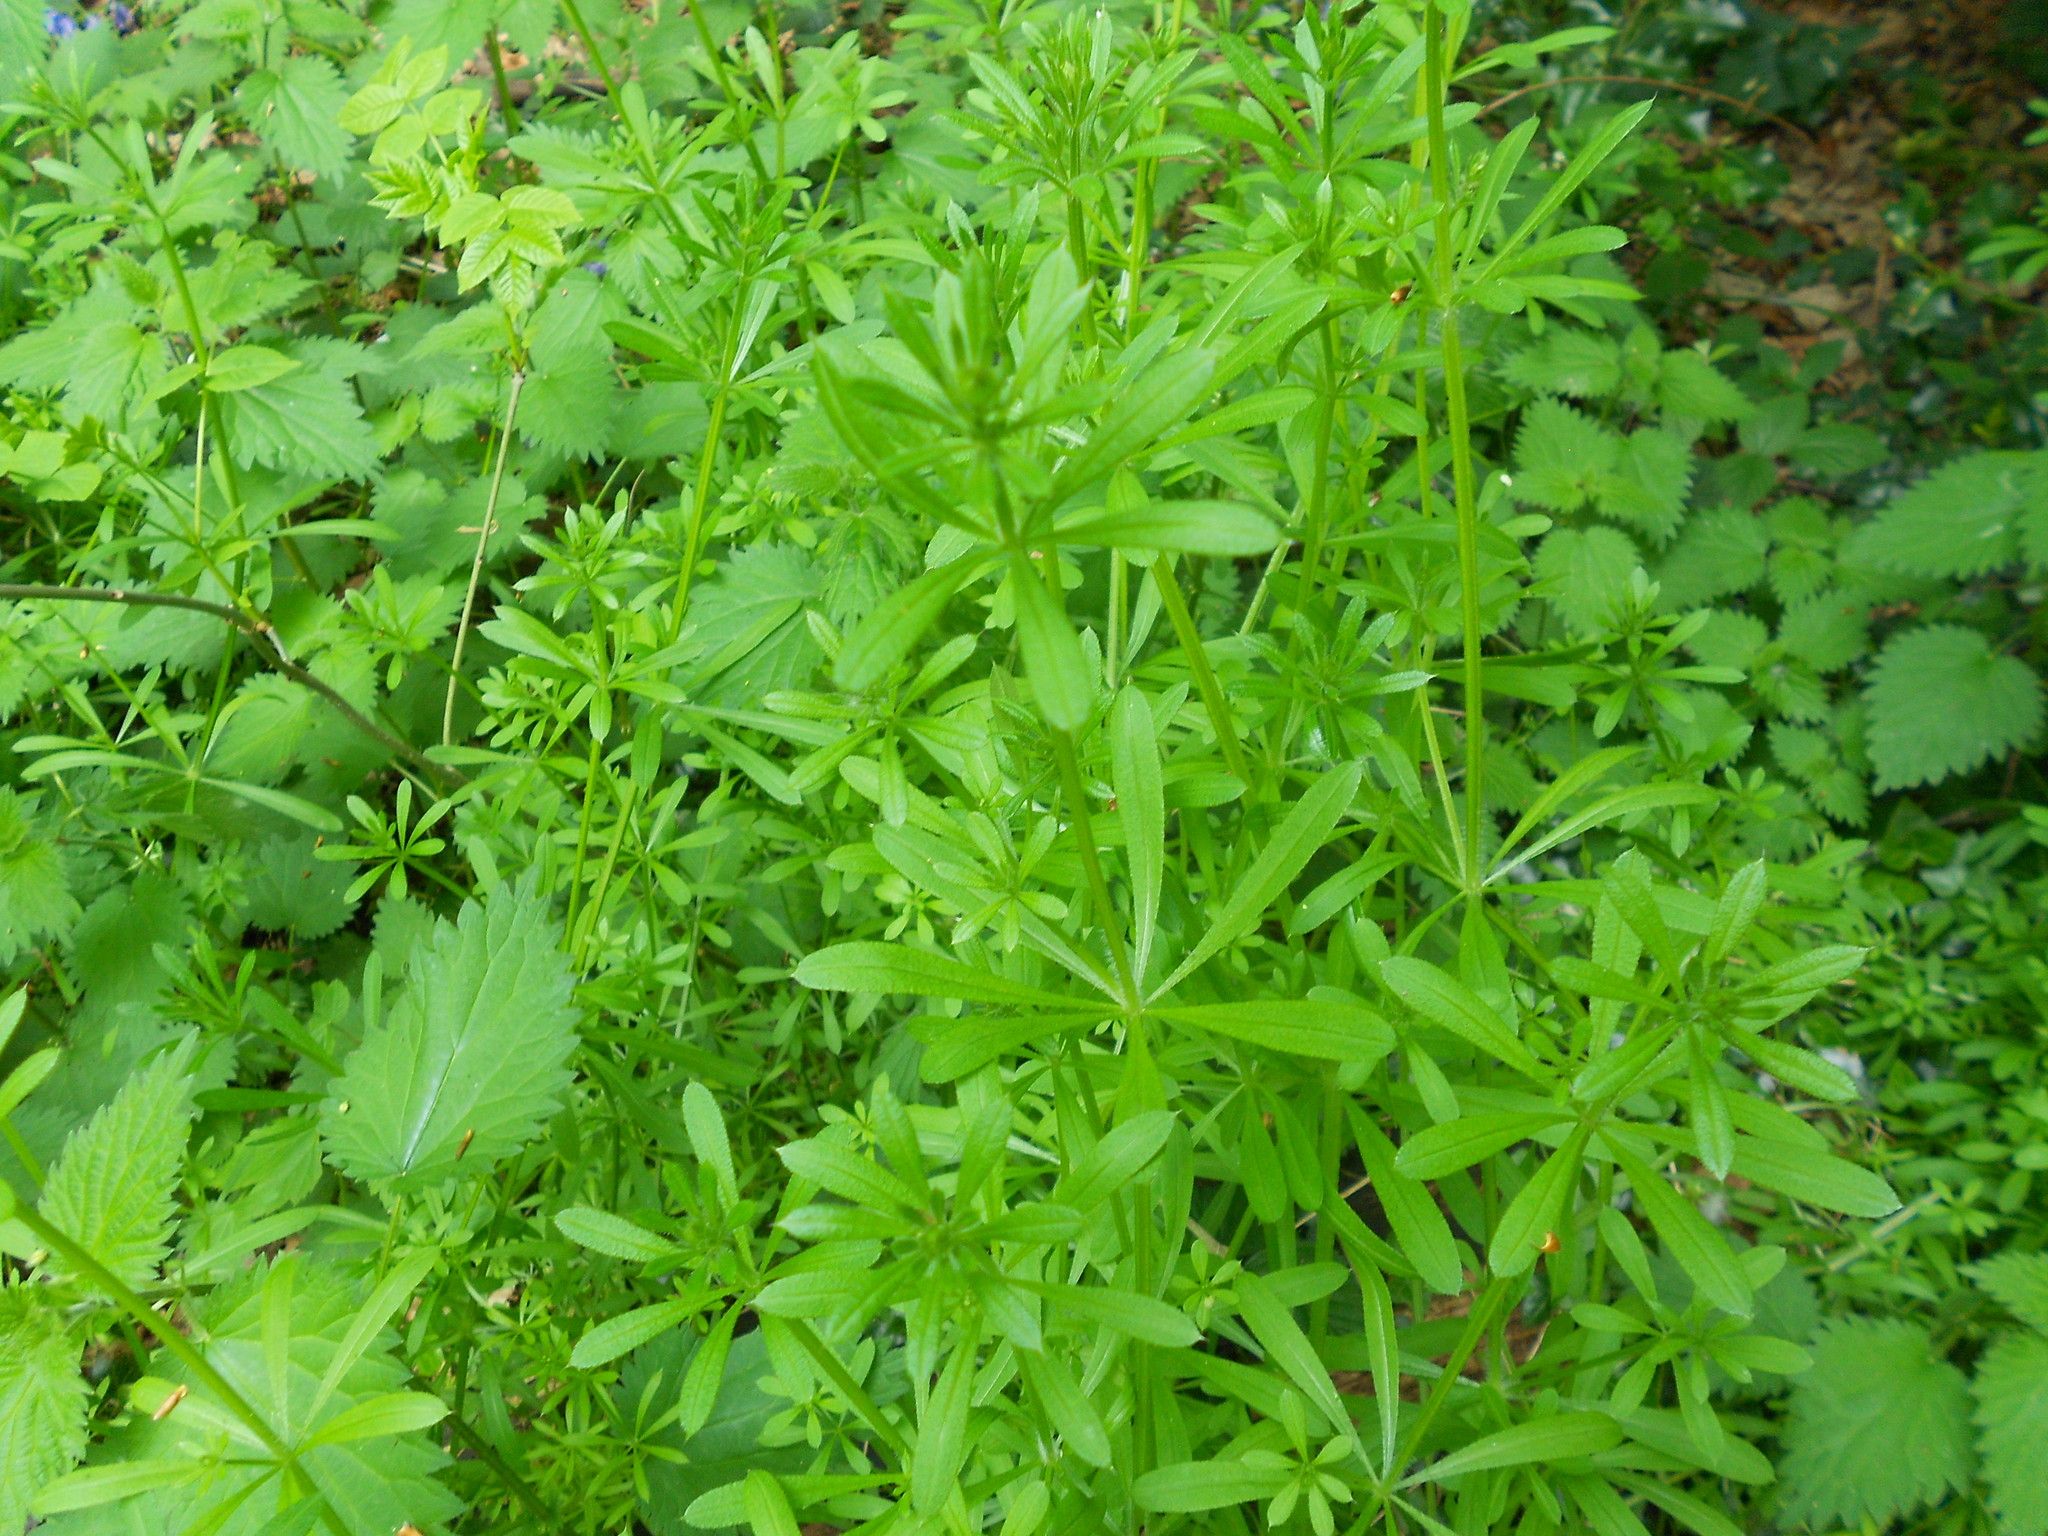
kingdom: Plantae
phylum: Tracheophyta
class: Magnoliopsida
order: Gentianales
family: Rubiaceae
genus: Galium
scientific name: Galium aparine
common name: Cleavers
